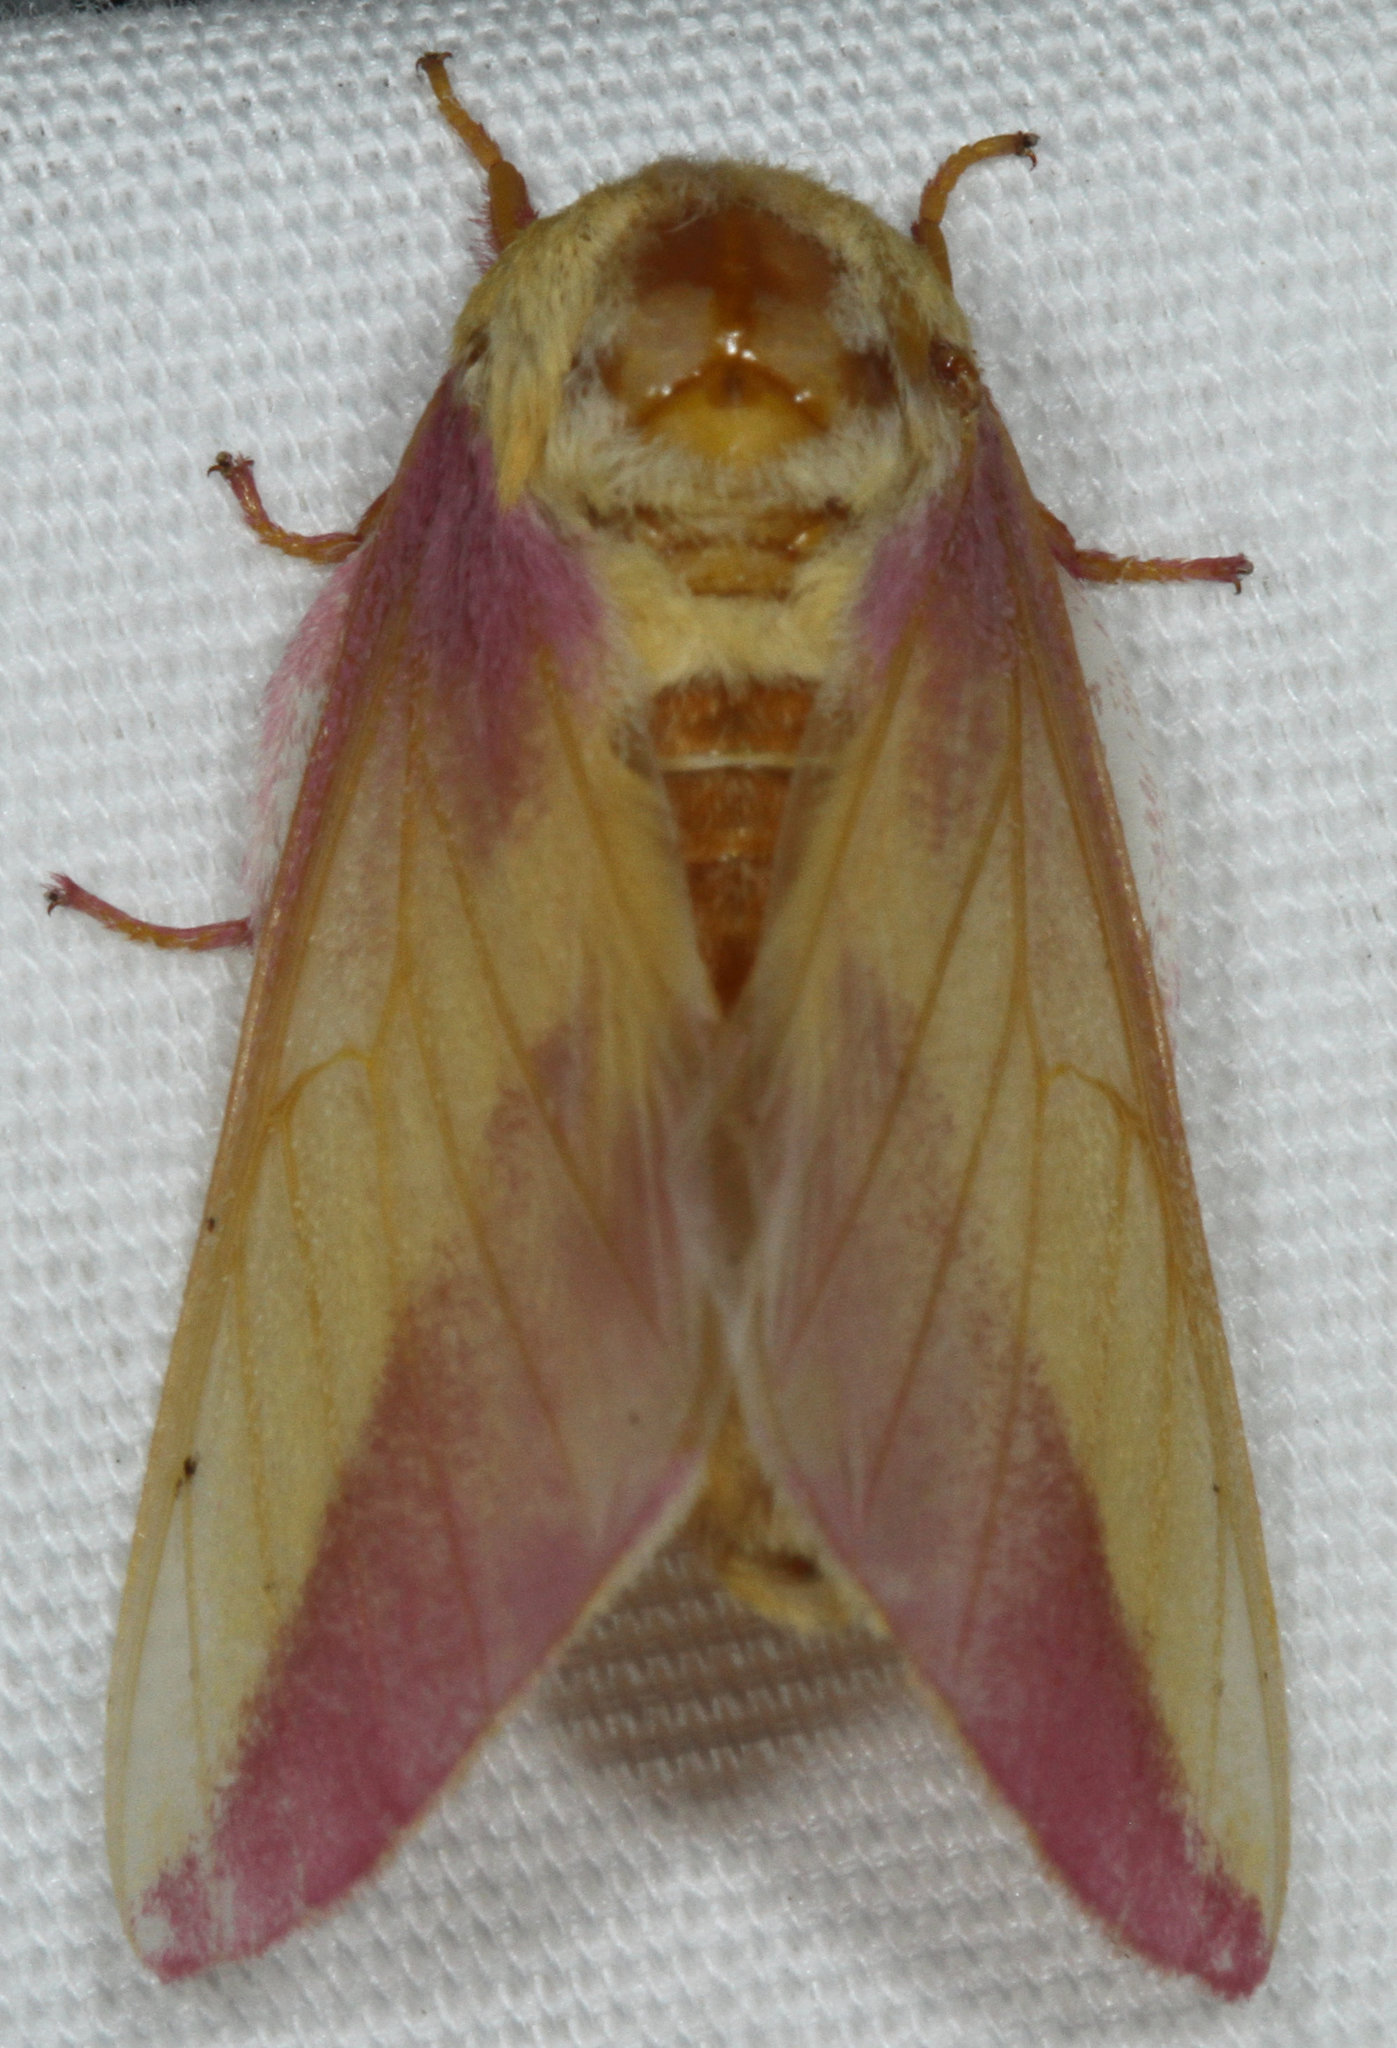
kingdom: Animalia
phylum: Arthropoda
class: Insecta
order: Lepidoptera
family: Saturniidae
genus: Dryocampa
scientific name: Dryocampa rubicunda
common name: Rosy maple moth
